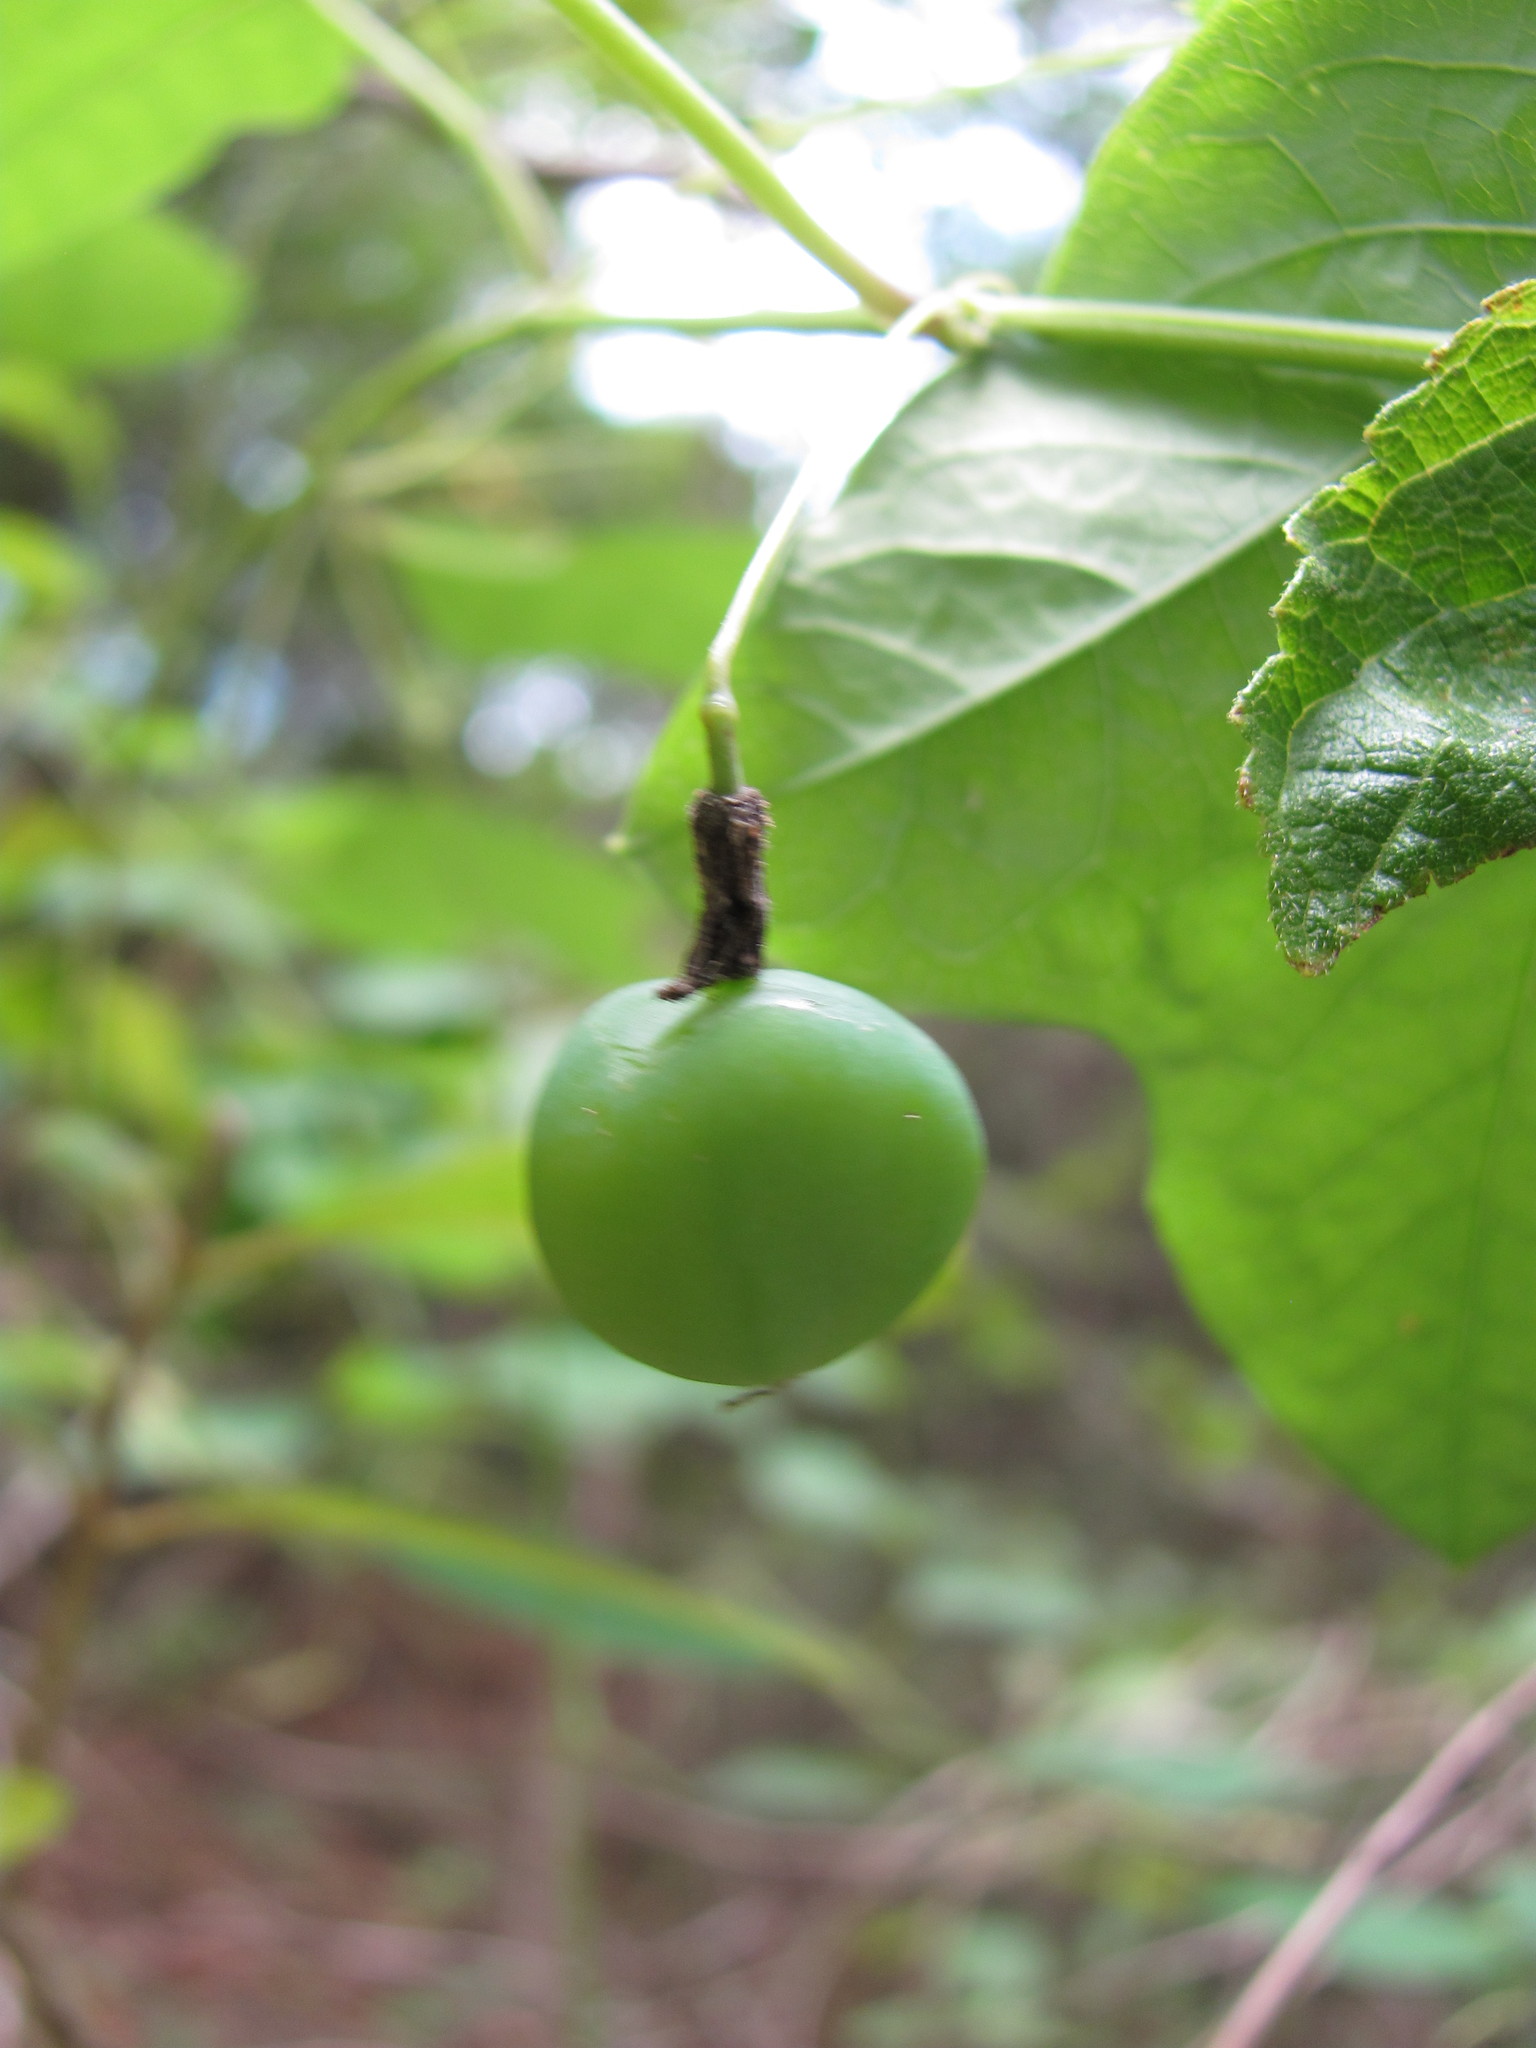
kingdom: Plantae
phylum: Tracheophyta
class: Magnoliopsida
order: Malpighiales
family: Passifloraceae
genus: Passiflora
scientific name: Passiflora lutea
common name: Yellow passionflower
